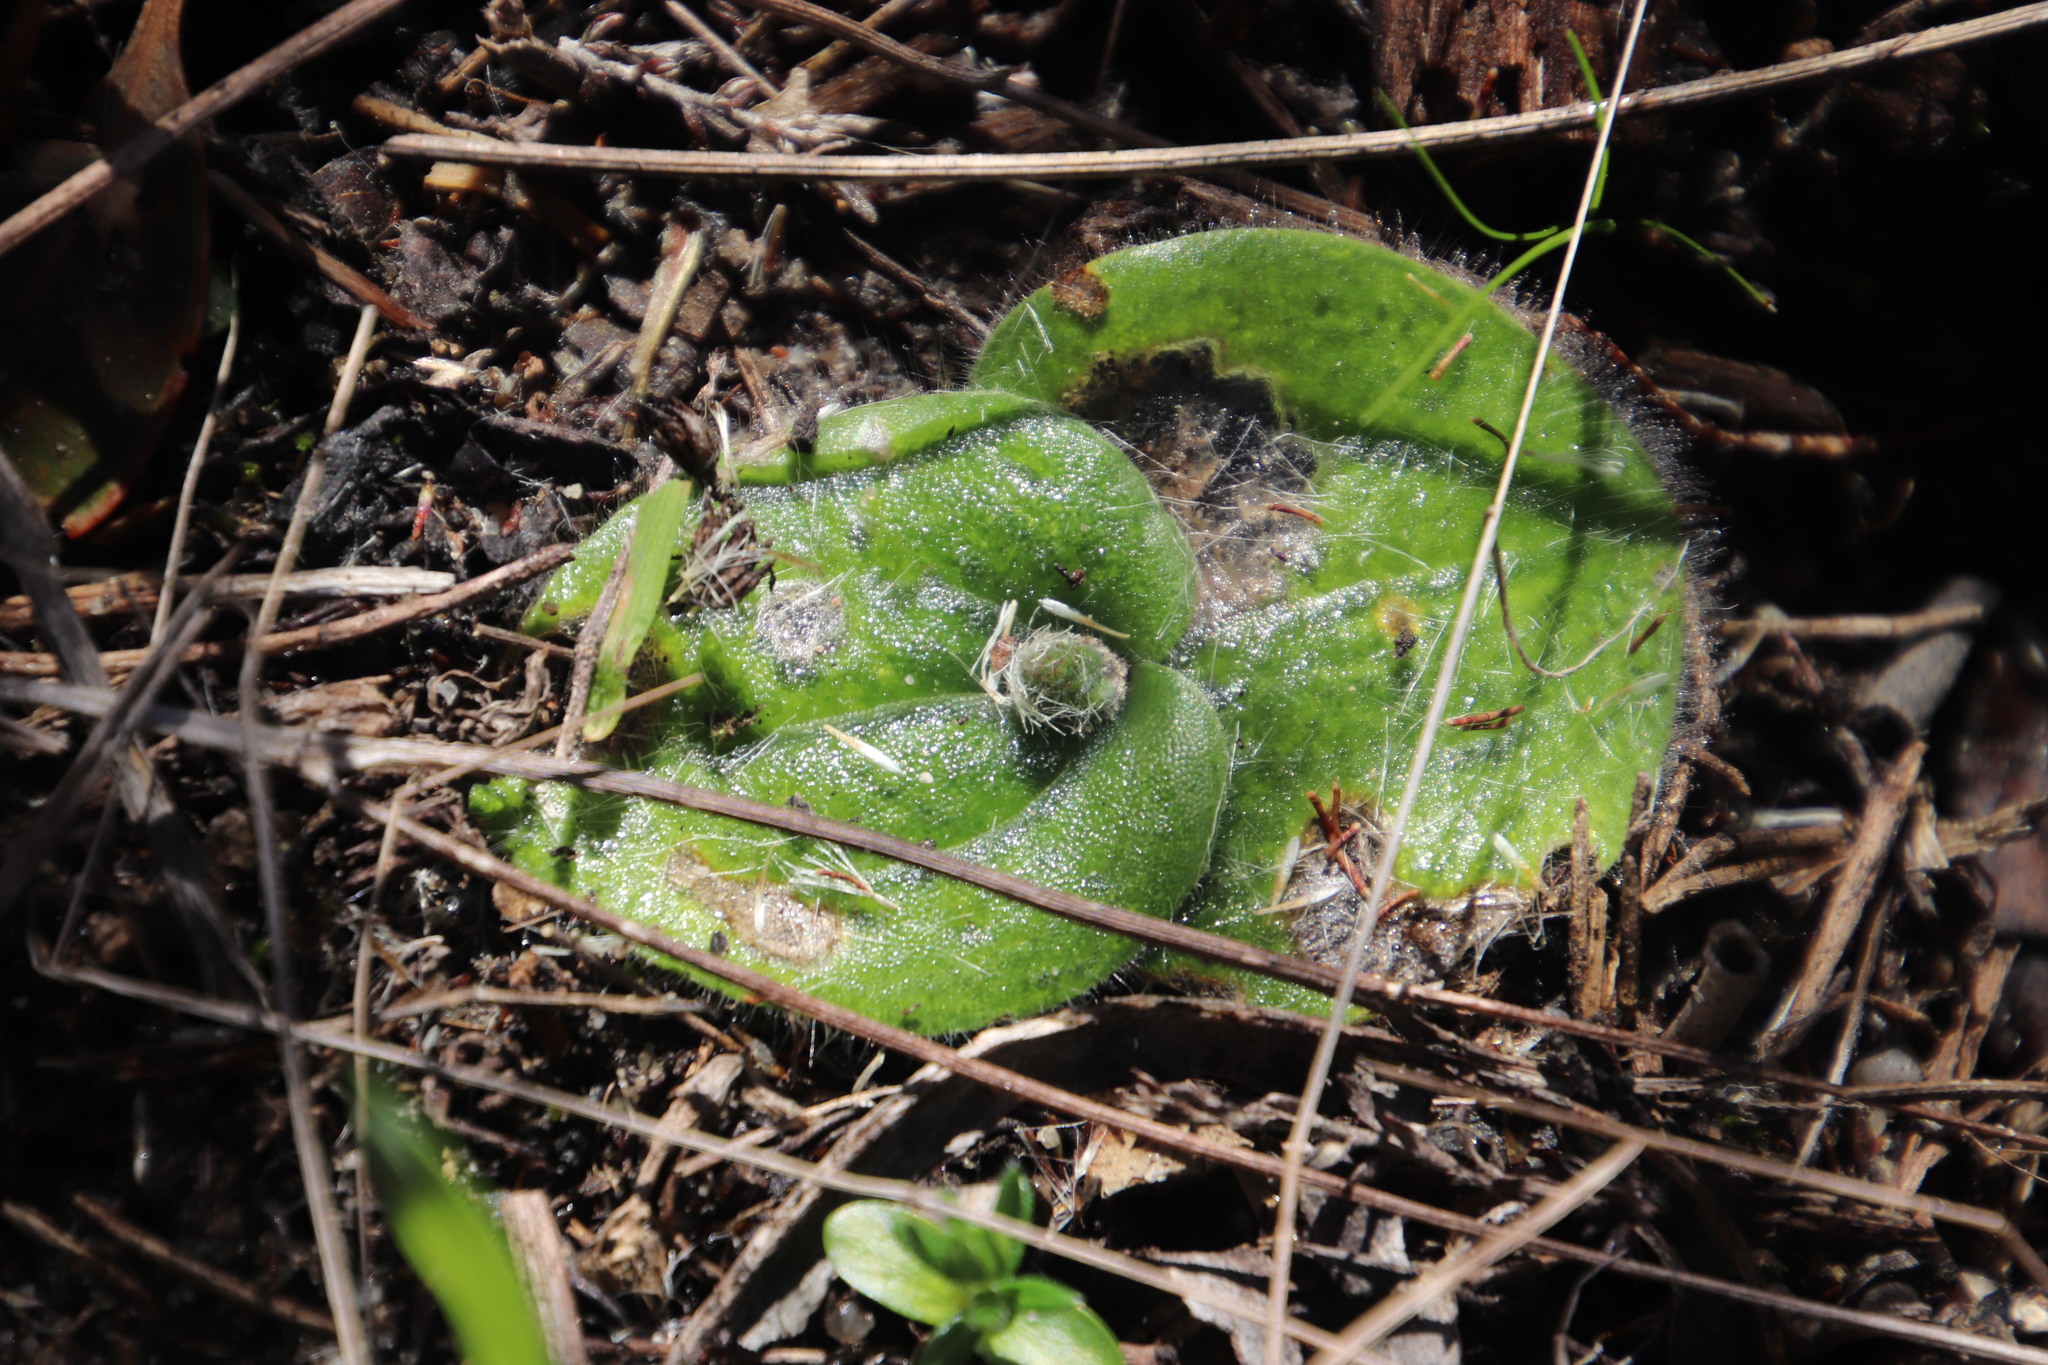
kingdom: Plantae
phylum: Tracheophyta
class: Liliopsida
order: Asparagales
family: Orchidaceae
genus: Holothrix
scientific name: Holothrix villosa
